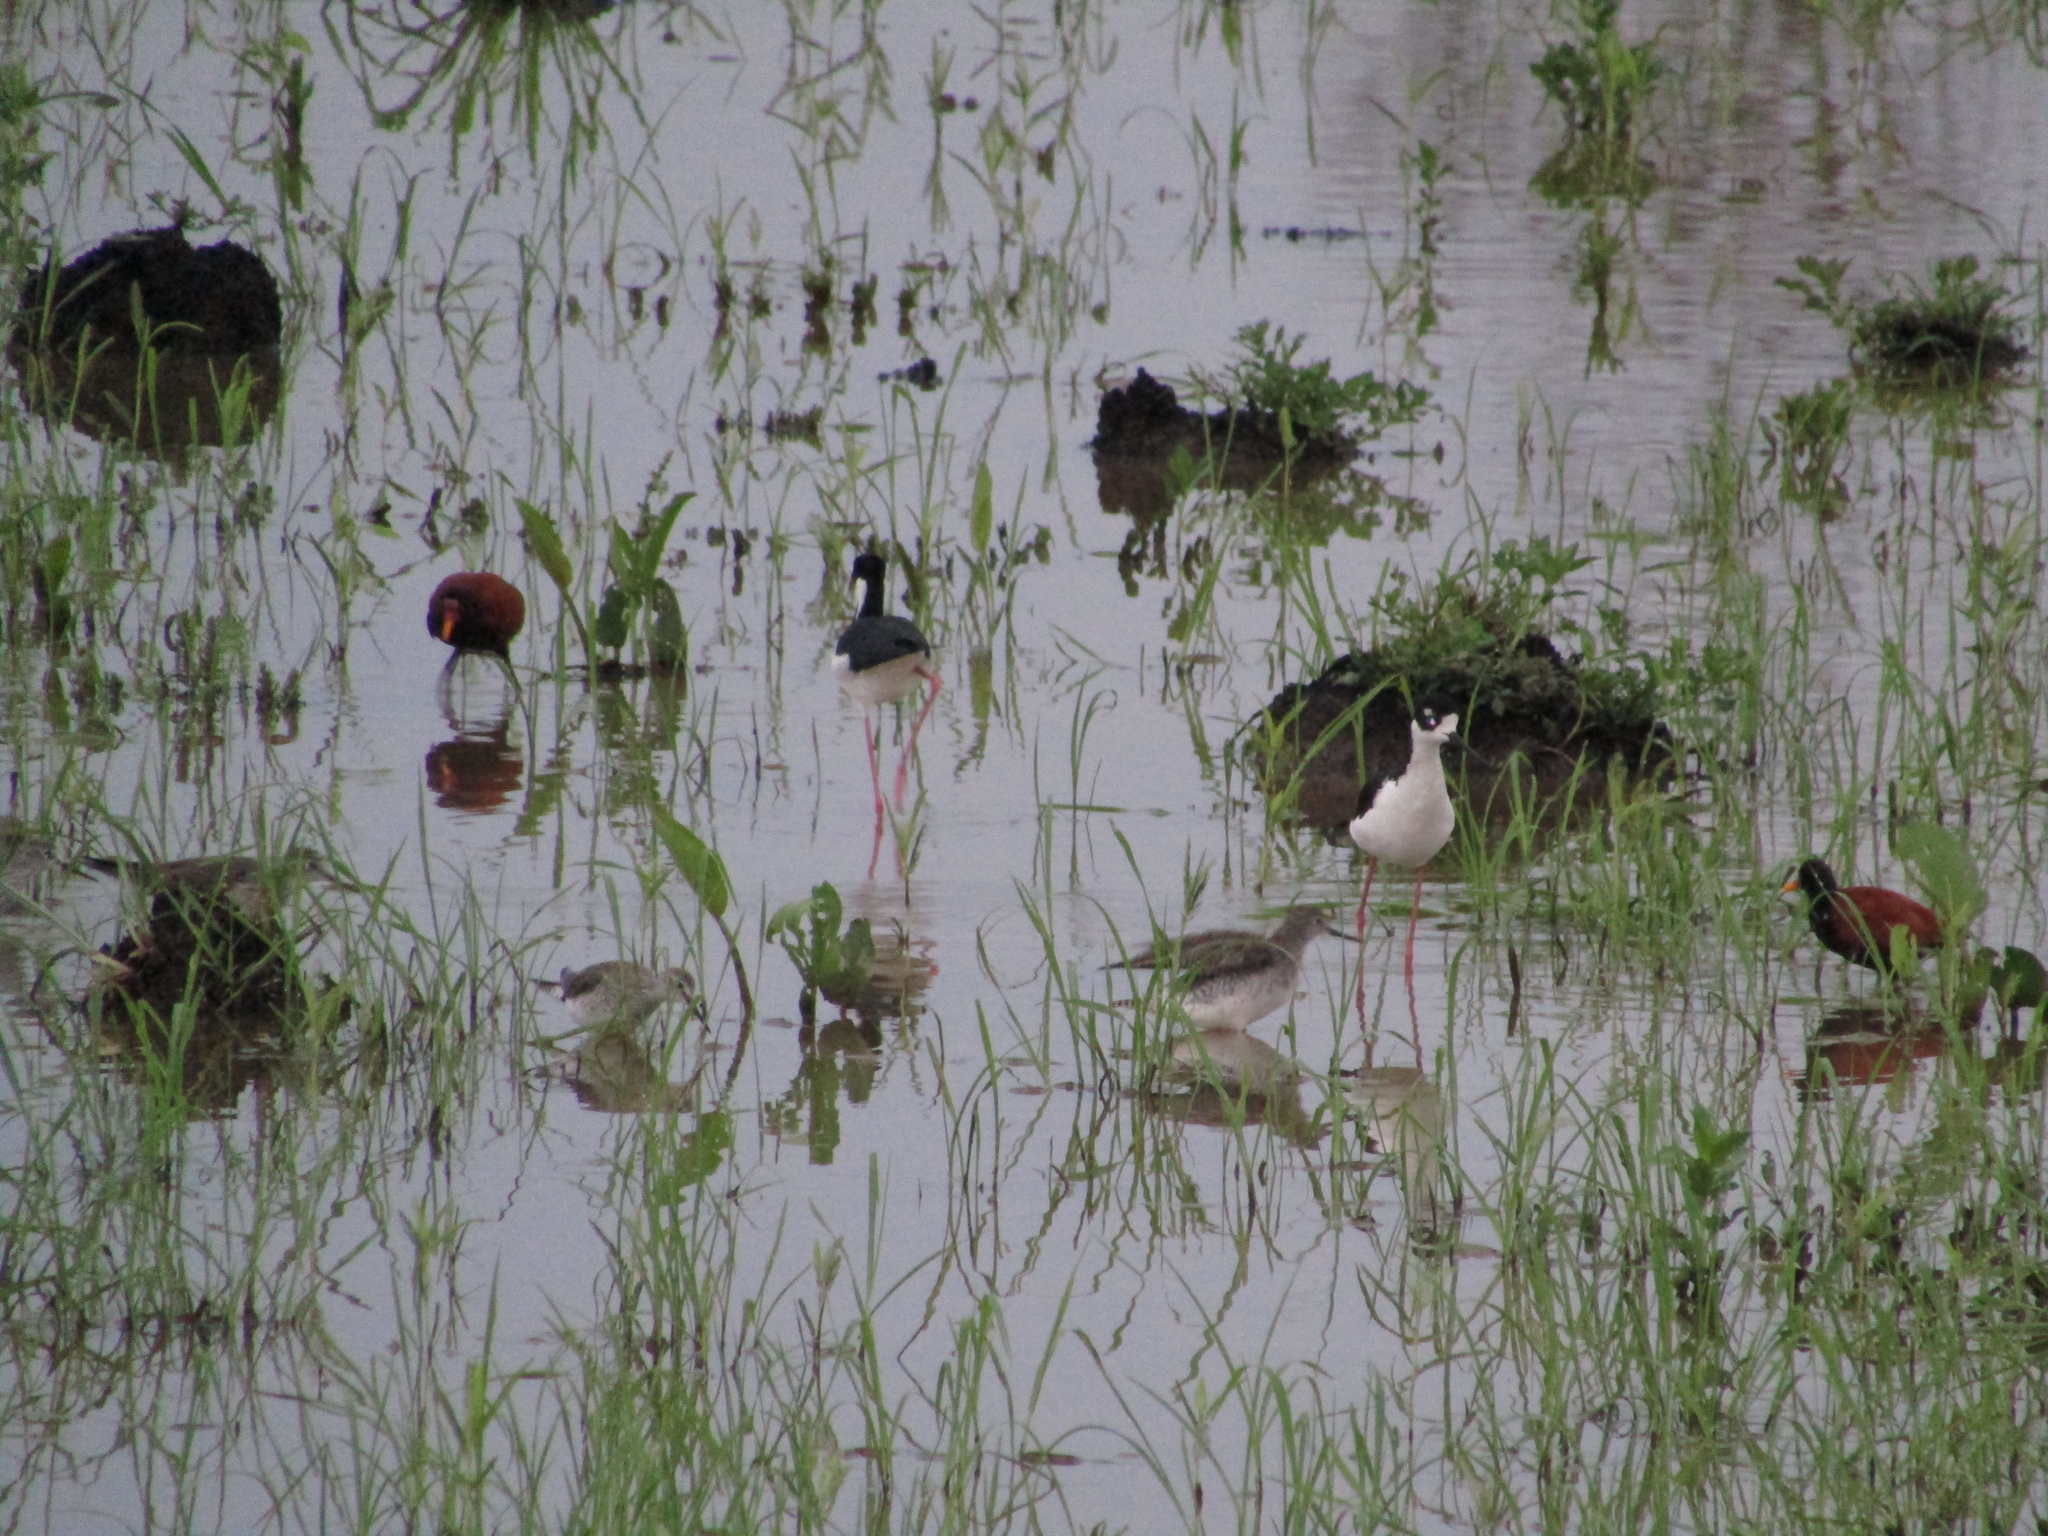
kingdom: Animalia
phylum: Chordata
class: Aves
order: Charadriiformes
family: Scolopacidae
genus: Tringa
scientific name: Tringa flavipes
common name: Lesser yellowlegs
